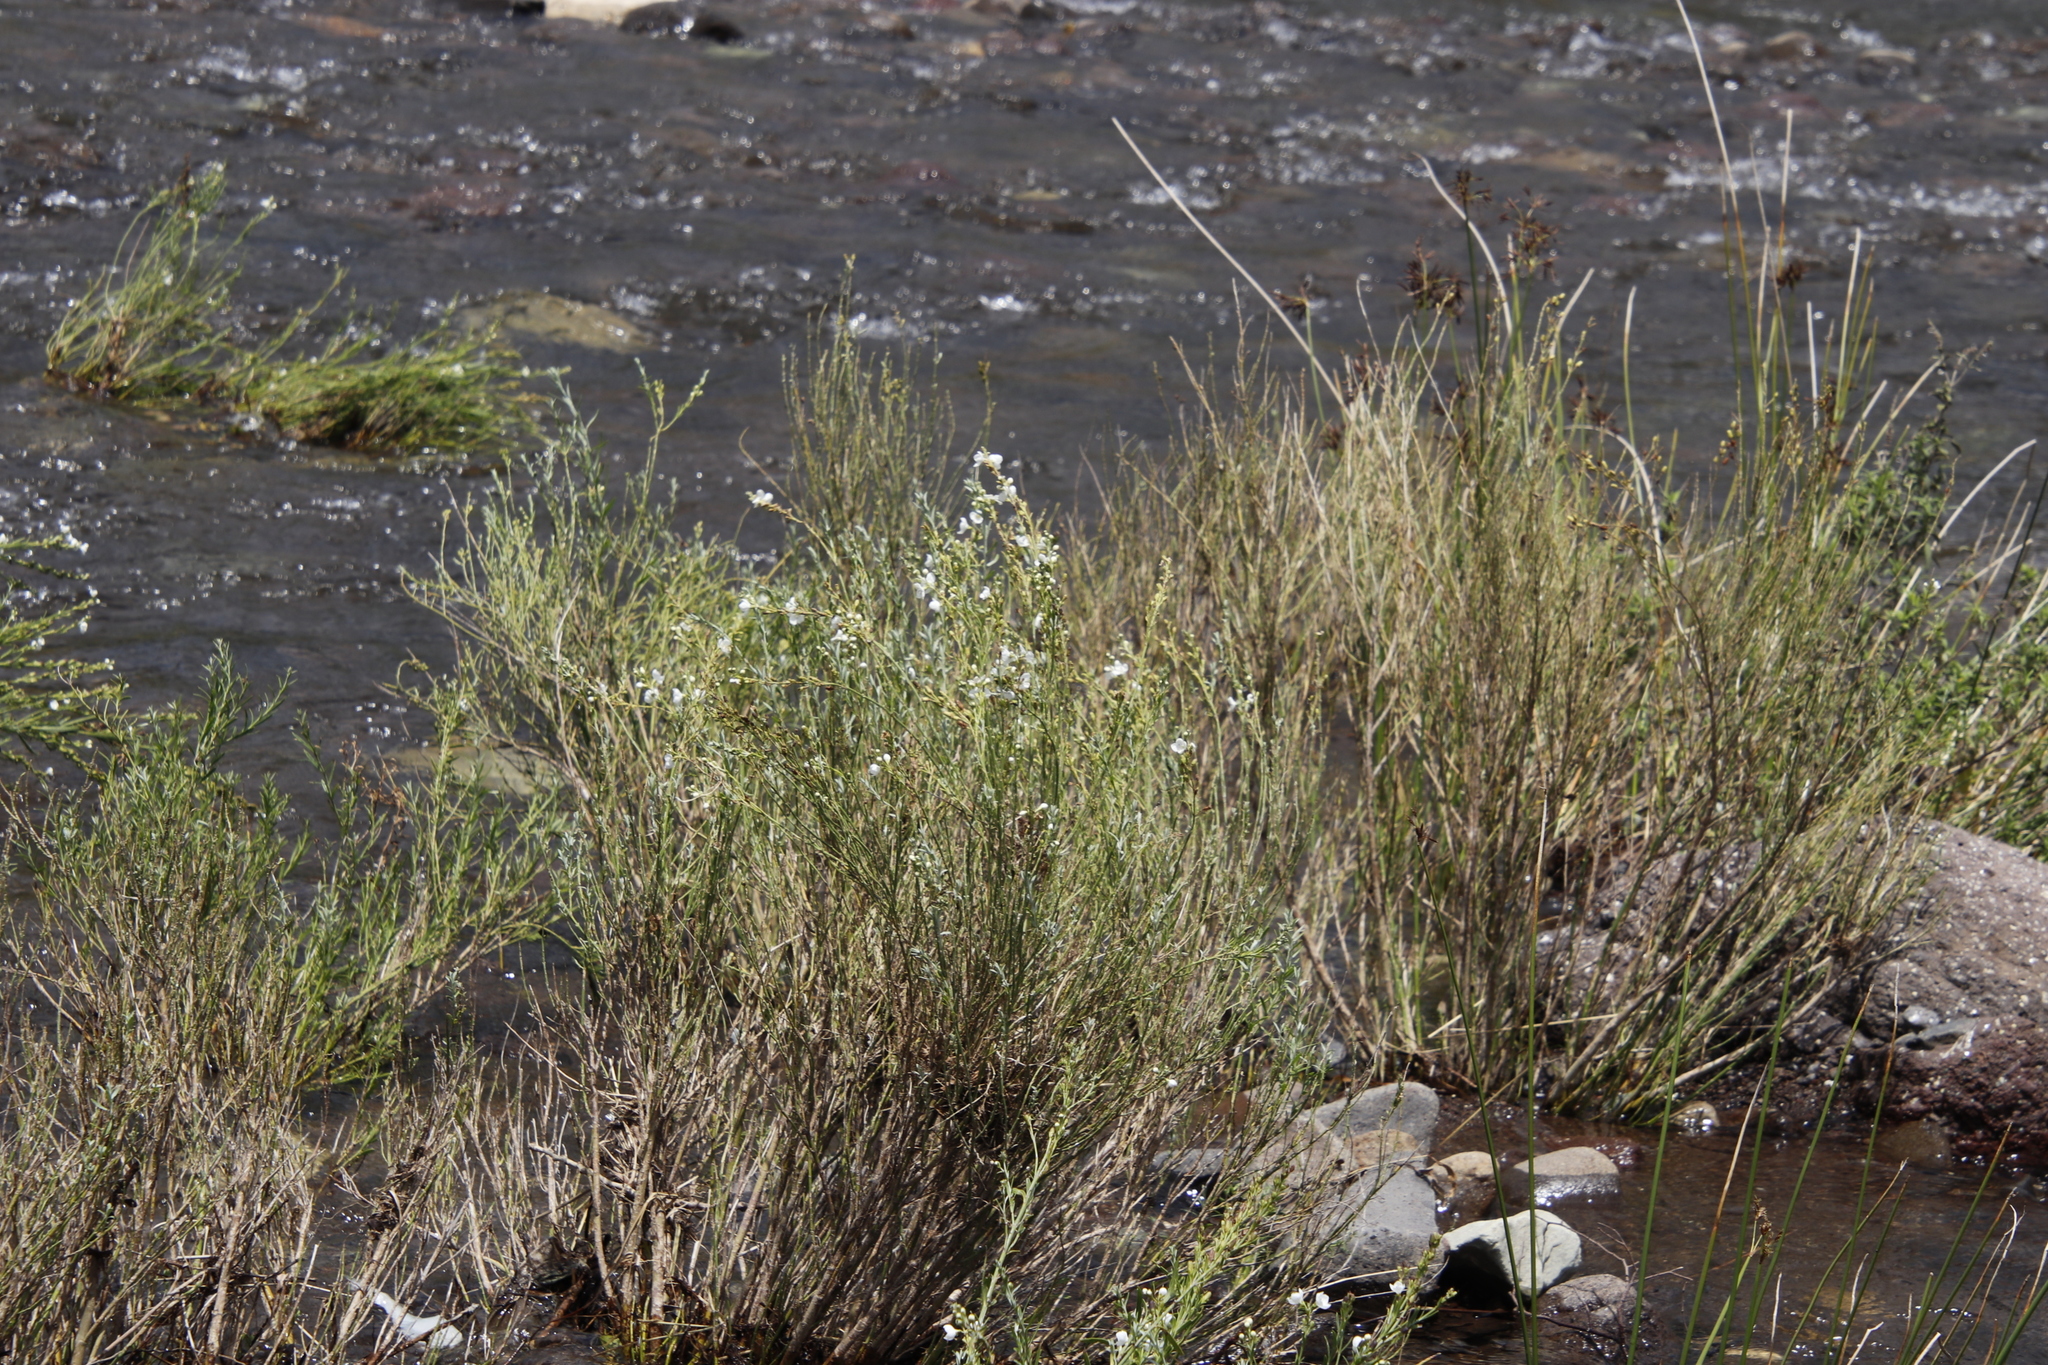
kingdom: Plantae
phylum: Tracheophyta
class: Magnoliopsida
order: Lamiales
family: Scrophulariaceae
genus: Buddleja
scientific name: Buddleja virgata
